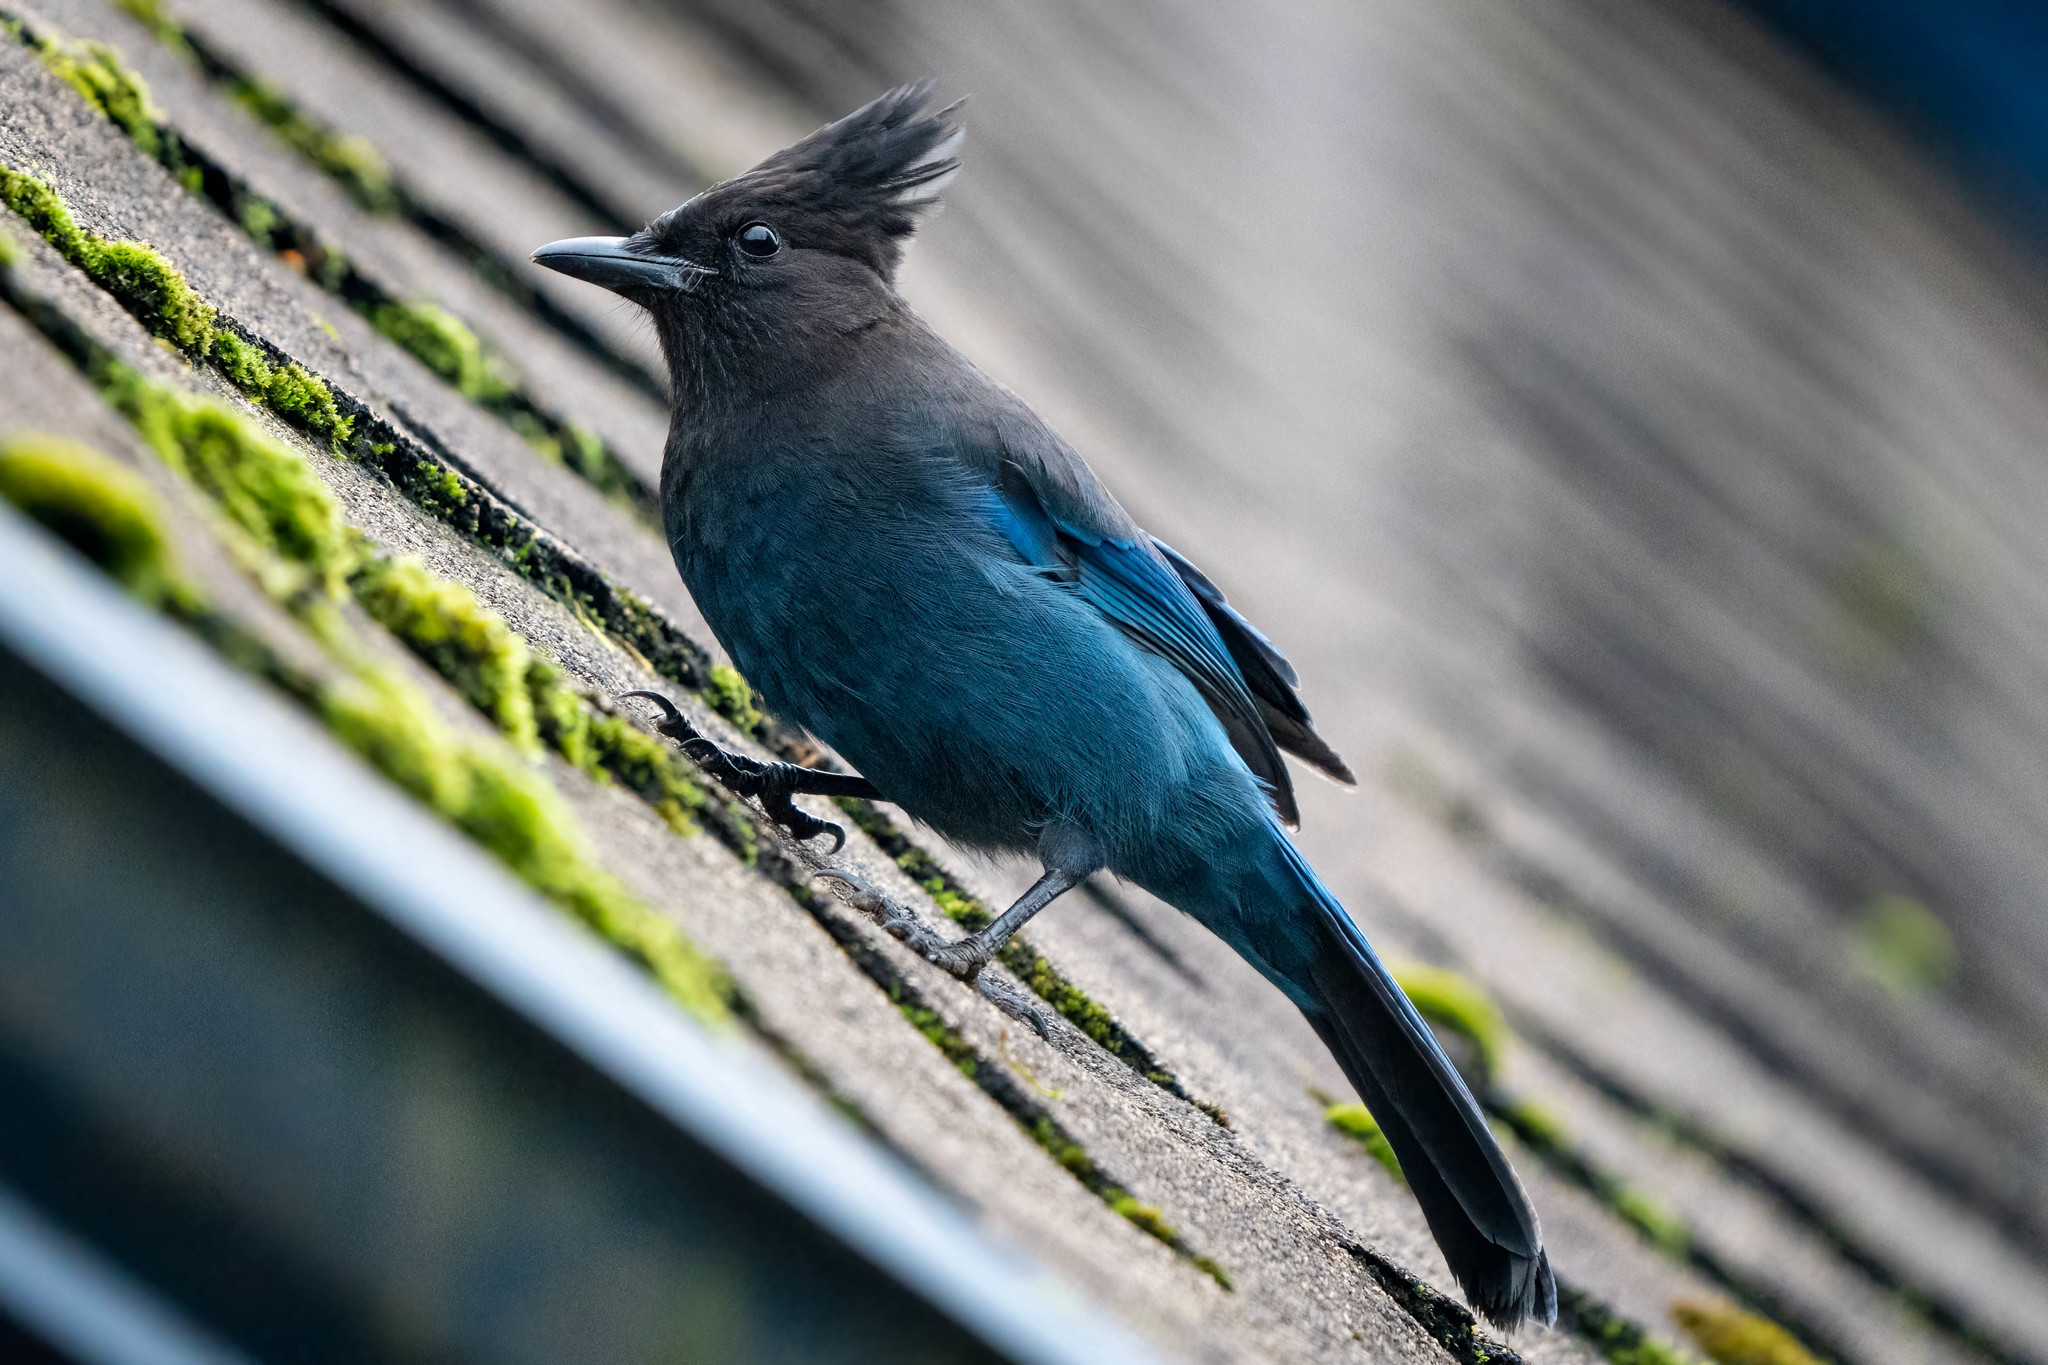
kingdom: Animalia
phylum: Chordata
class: Aves
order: Passeriformes
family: Corvidae
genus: Cyanocitta
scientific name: Cyanocitta stelleri
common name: Steller's jay
